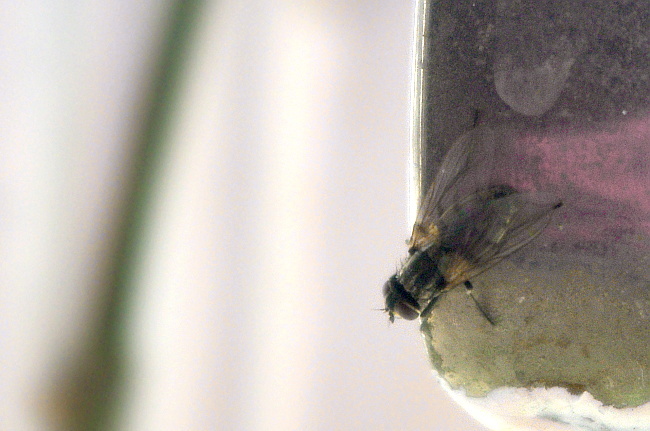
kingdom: Animalia
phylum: Arthropoda
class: Insecta
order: Diptera
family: Muscidae
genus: Musca
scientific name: Musca domestica
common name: House fly
